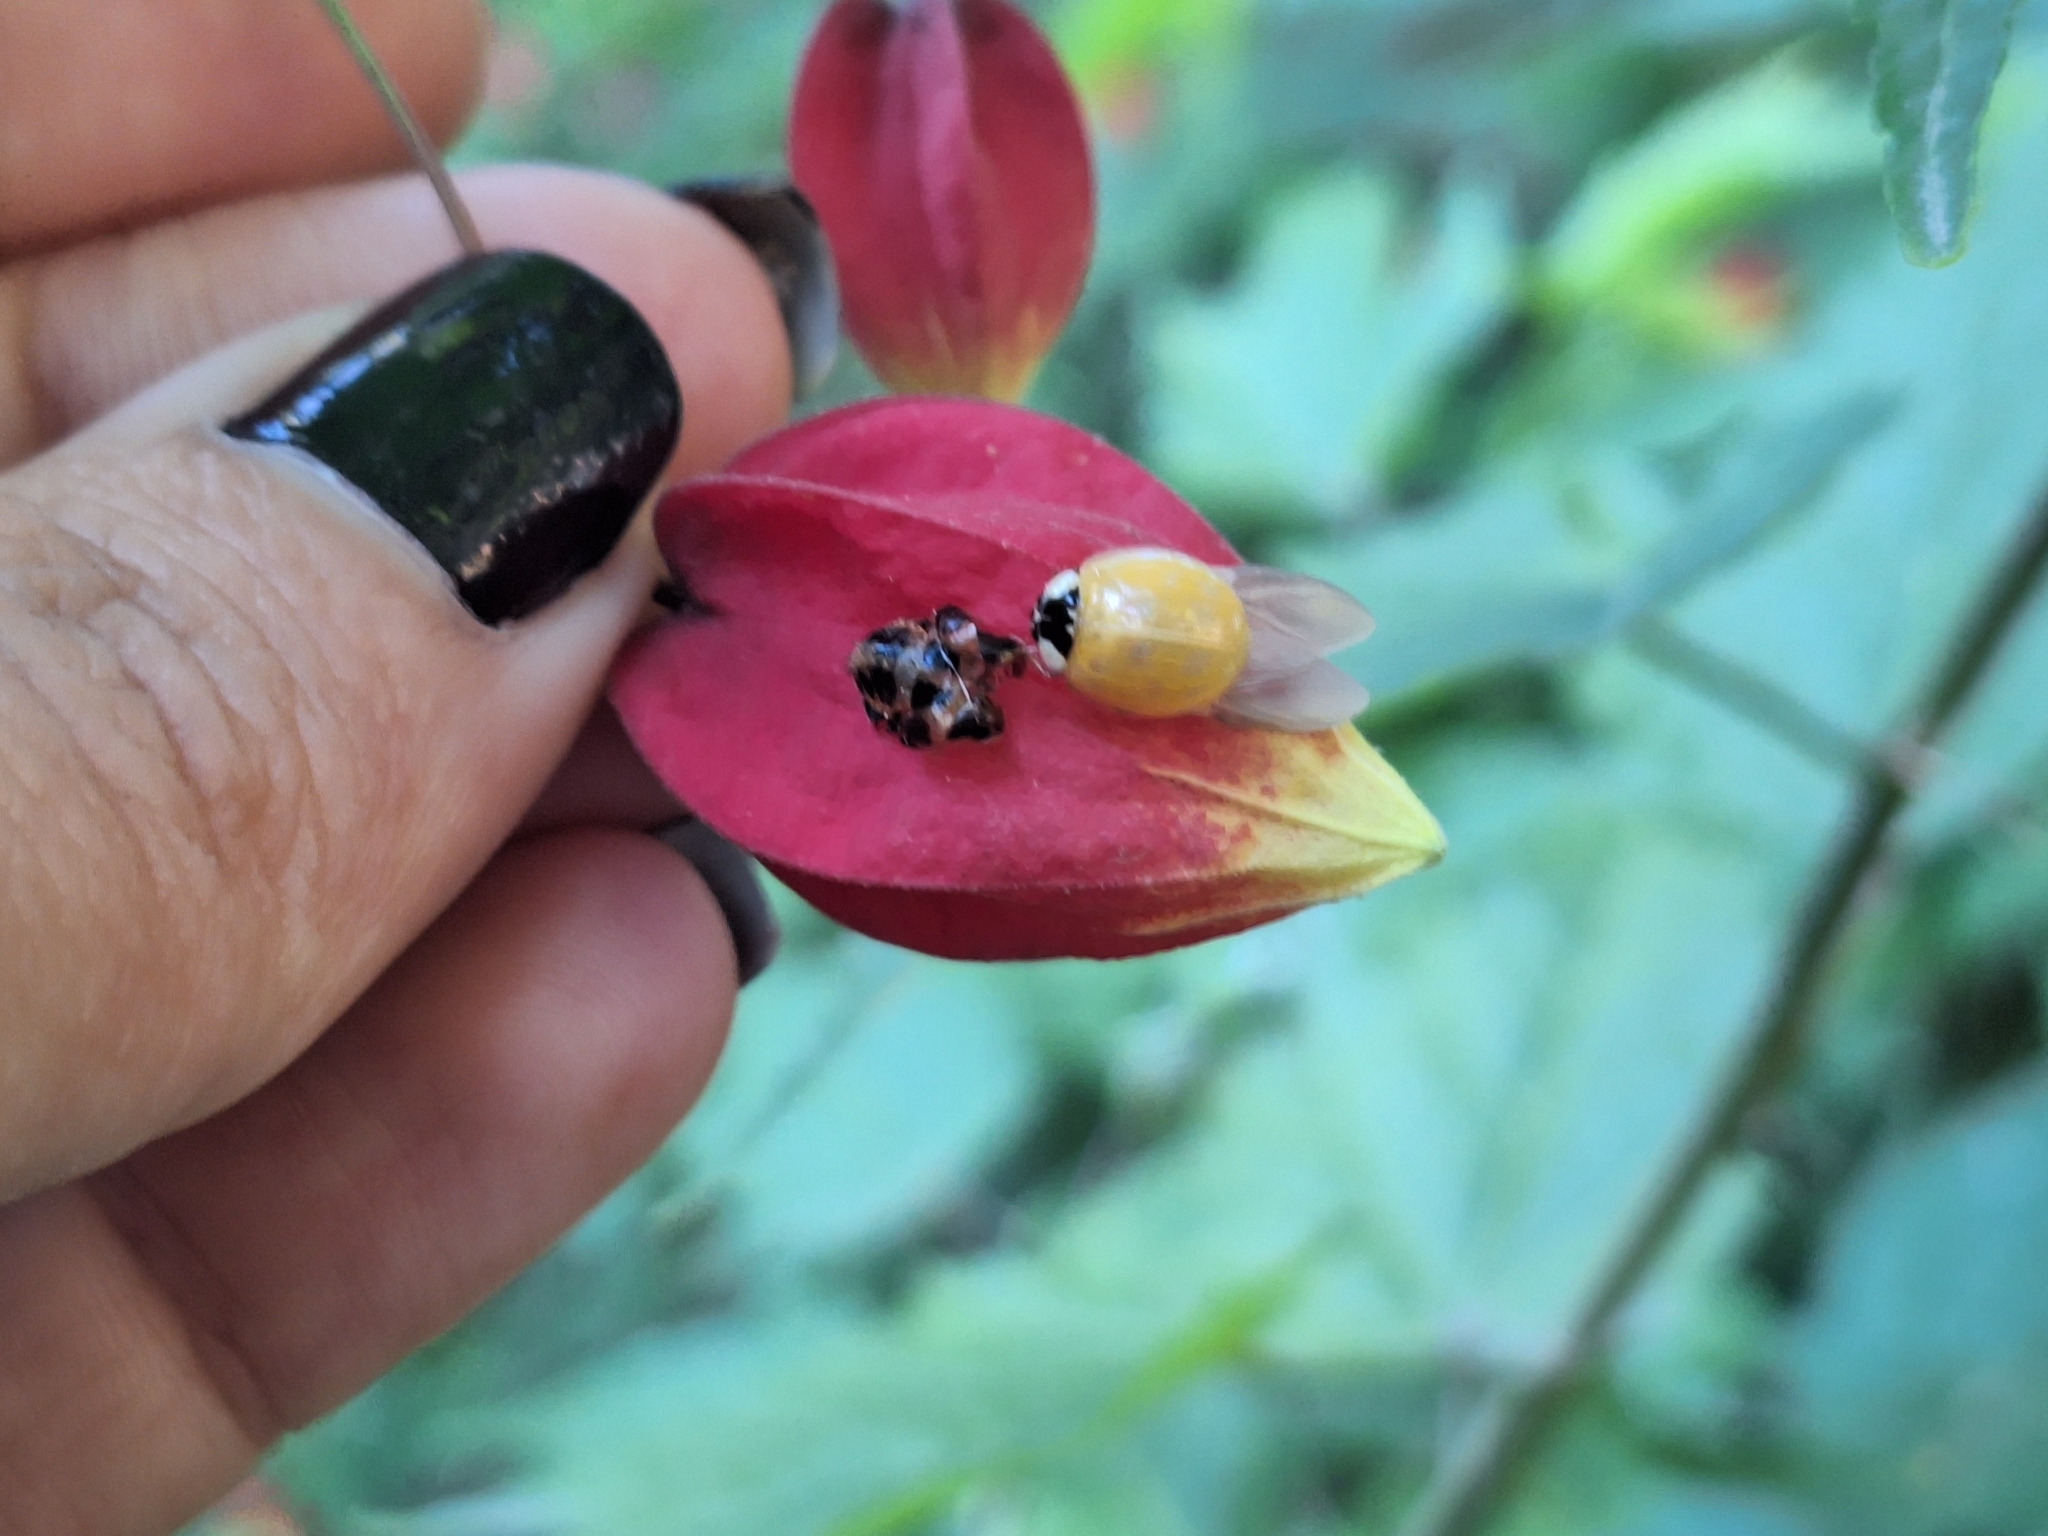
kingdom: Animalia
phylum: Arthropoda
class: Insecta
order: Coleoptera
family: Coccinellidae
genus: Harmonia
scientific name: Harmonia axyridis
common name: Harlequin ladybird
